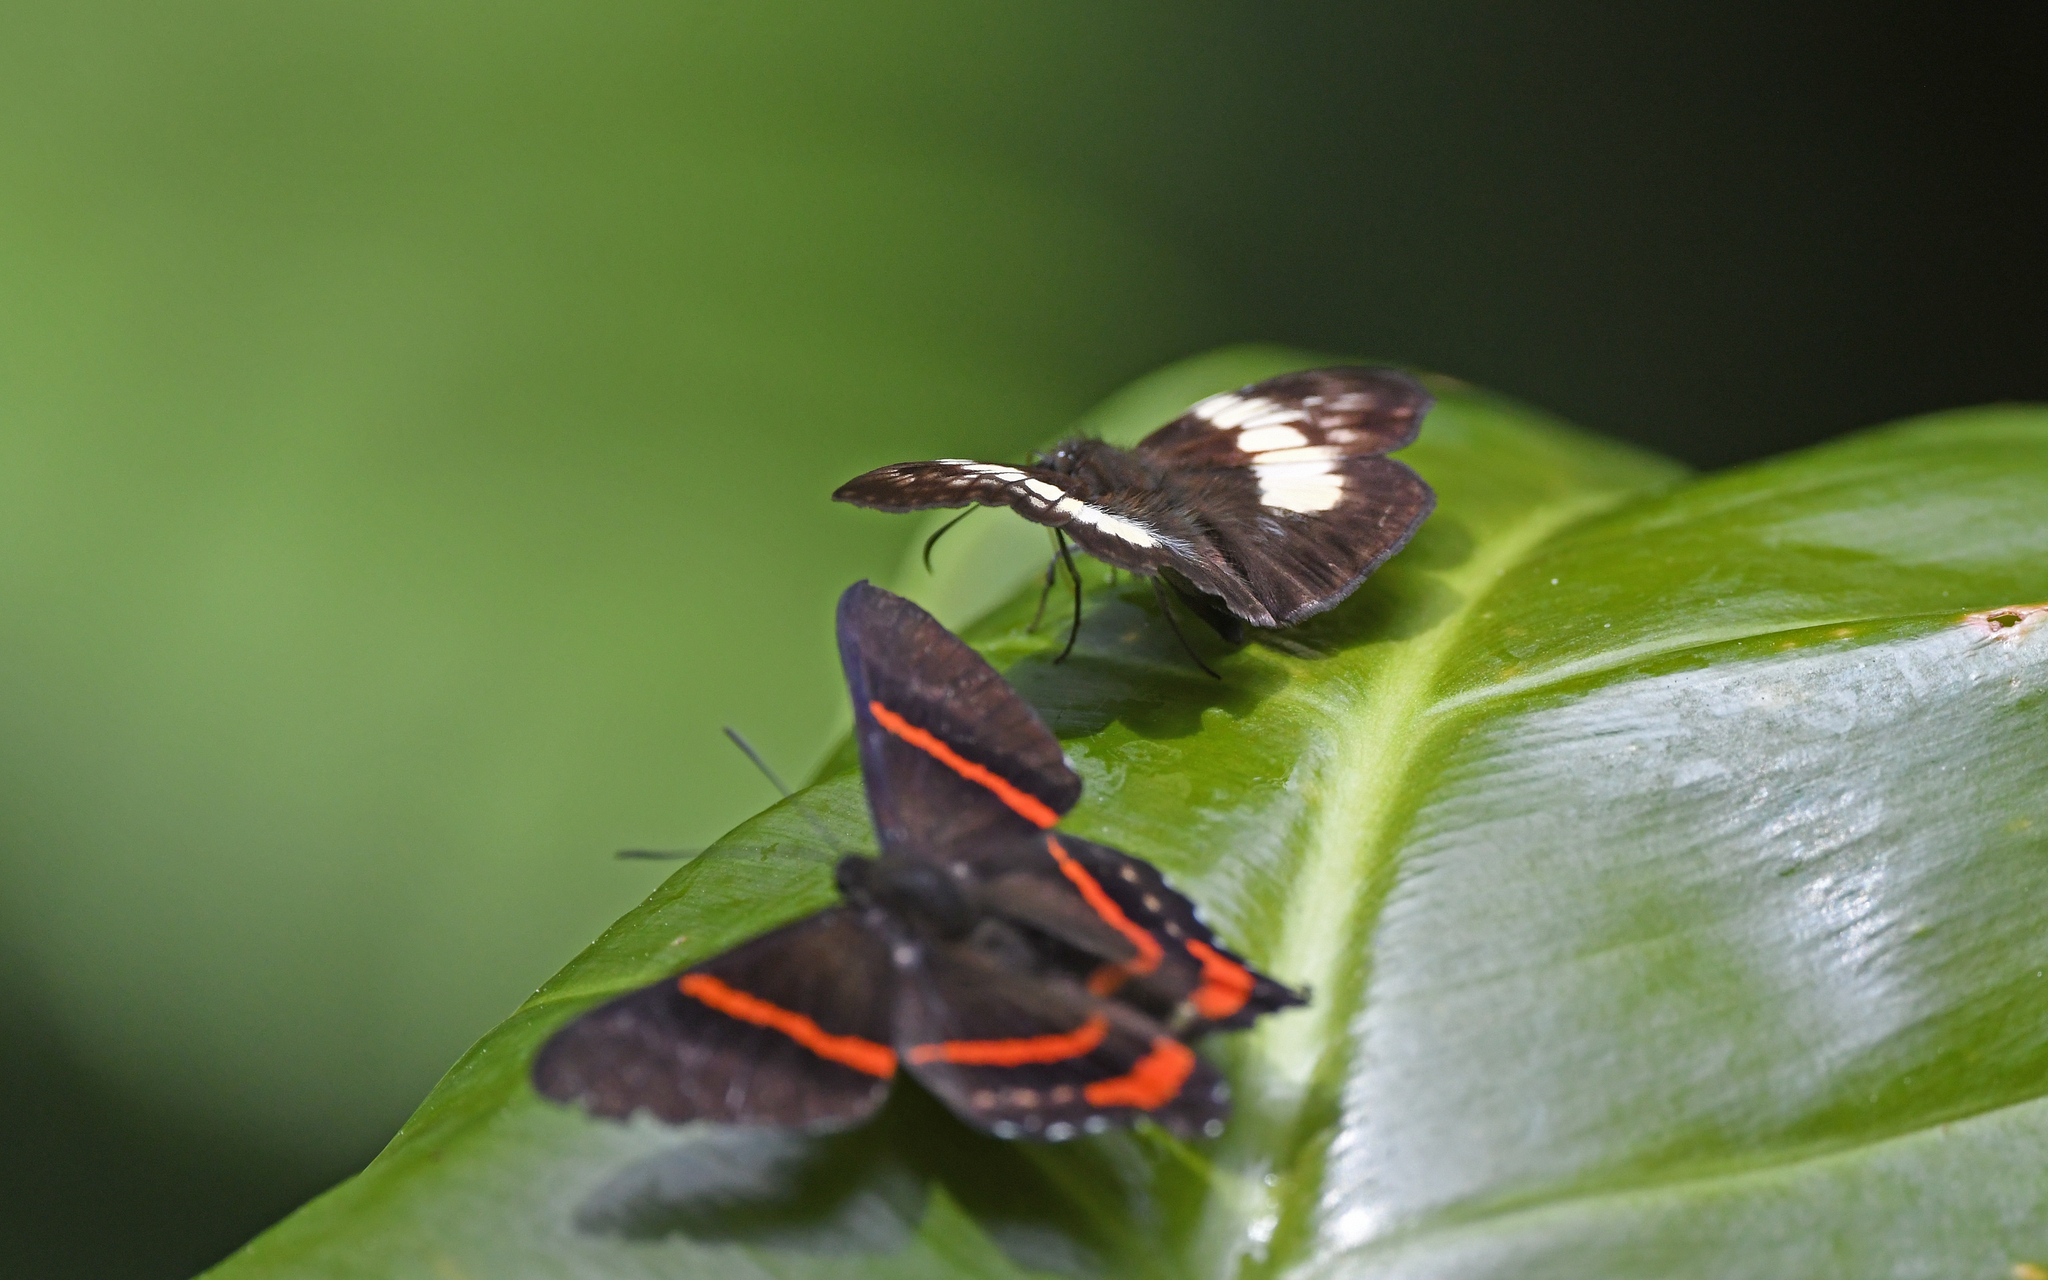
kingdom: Animalia
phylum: Arthropoda
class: Insecta
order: Lepidoptera
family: Hesperiidae
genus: Potamanaxas
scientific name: Potamanaxas thestia
